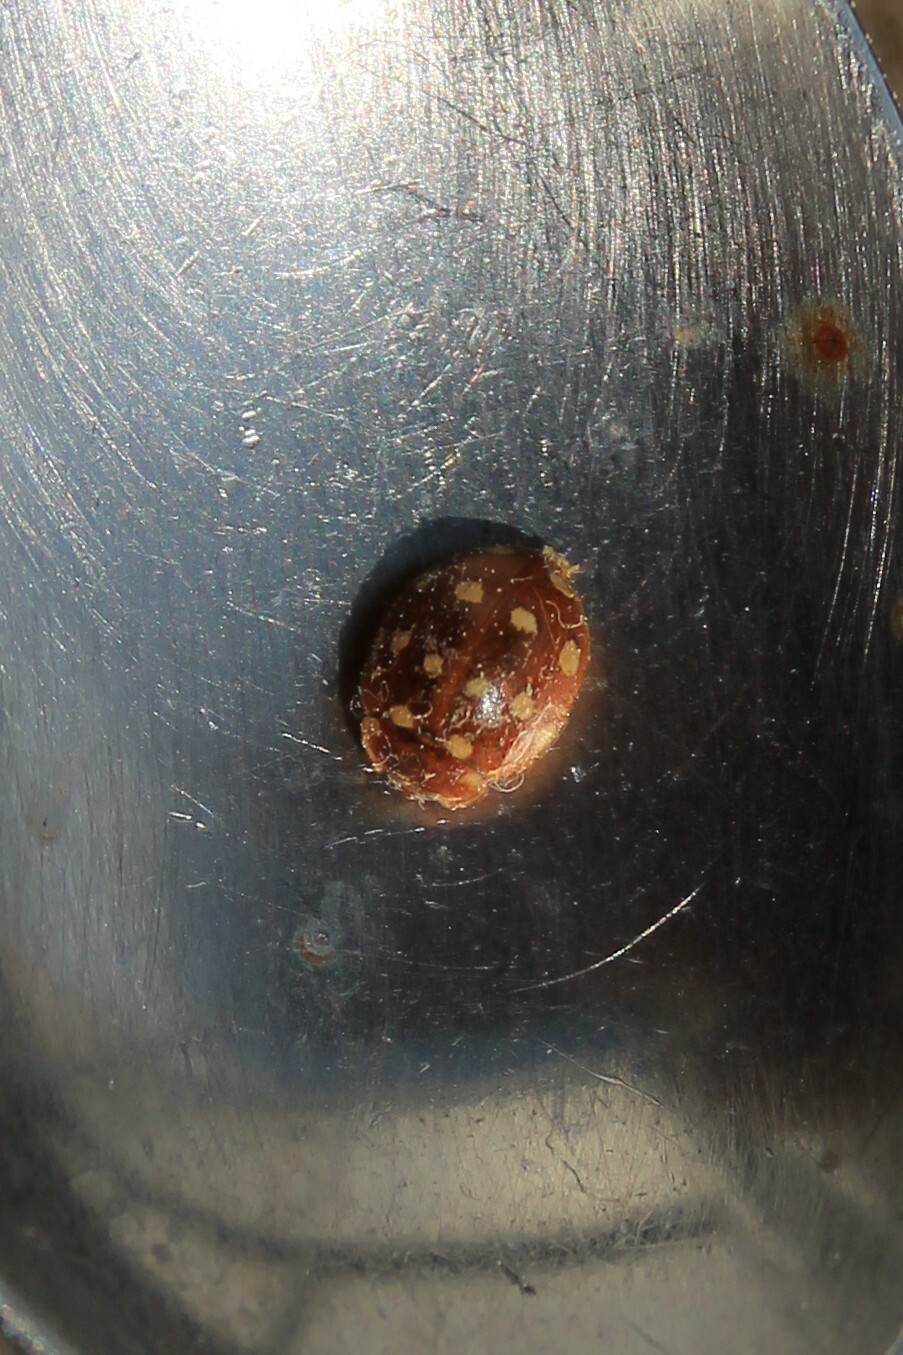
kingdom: Animalia
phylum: Arthropoda
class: Insecta
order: Coleoptera
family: Coccinellidae
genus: Calvia
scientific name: Calvia quatuordecimguttata
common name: Cream-spot ladybird
